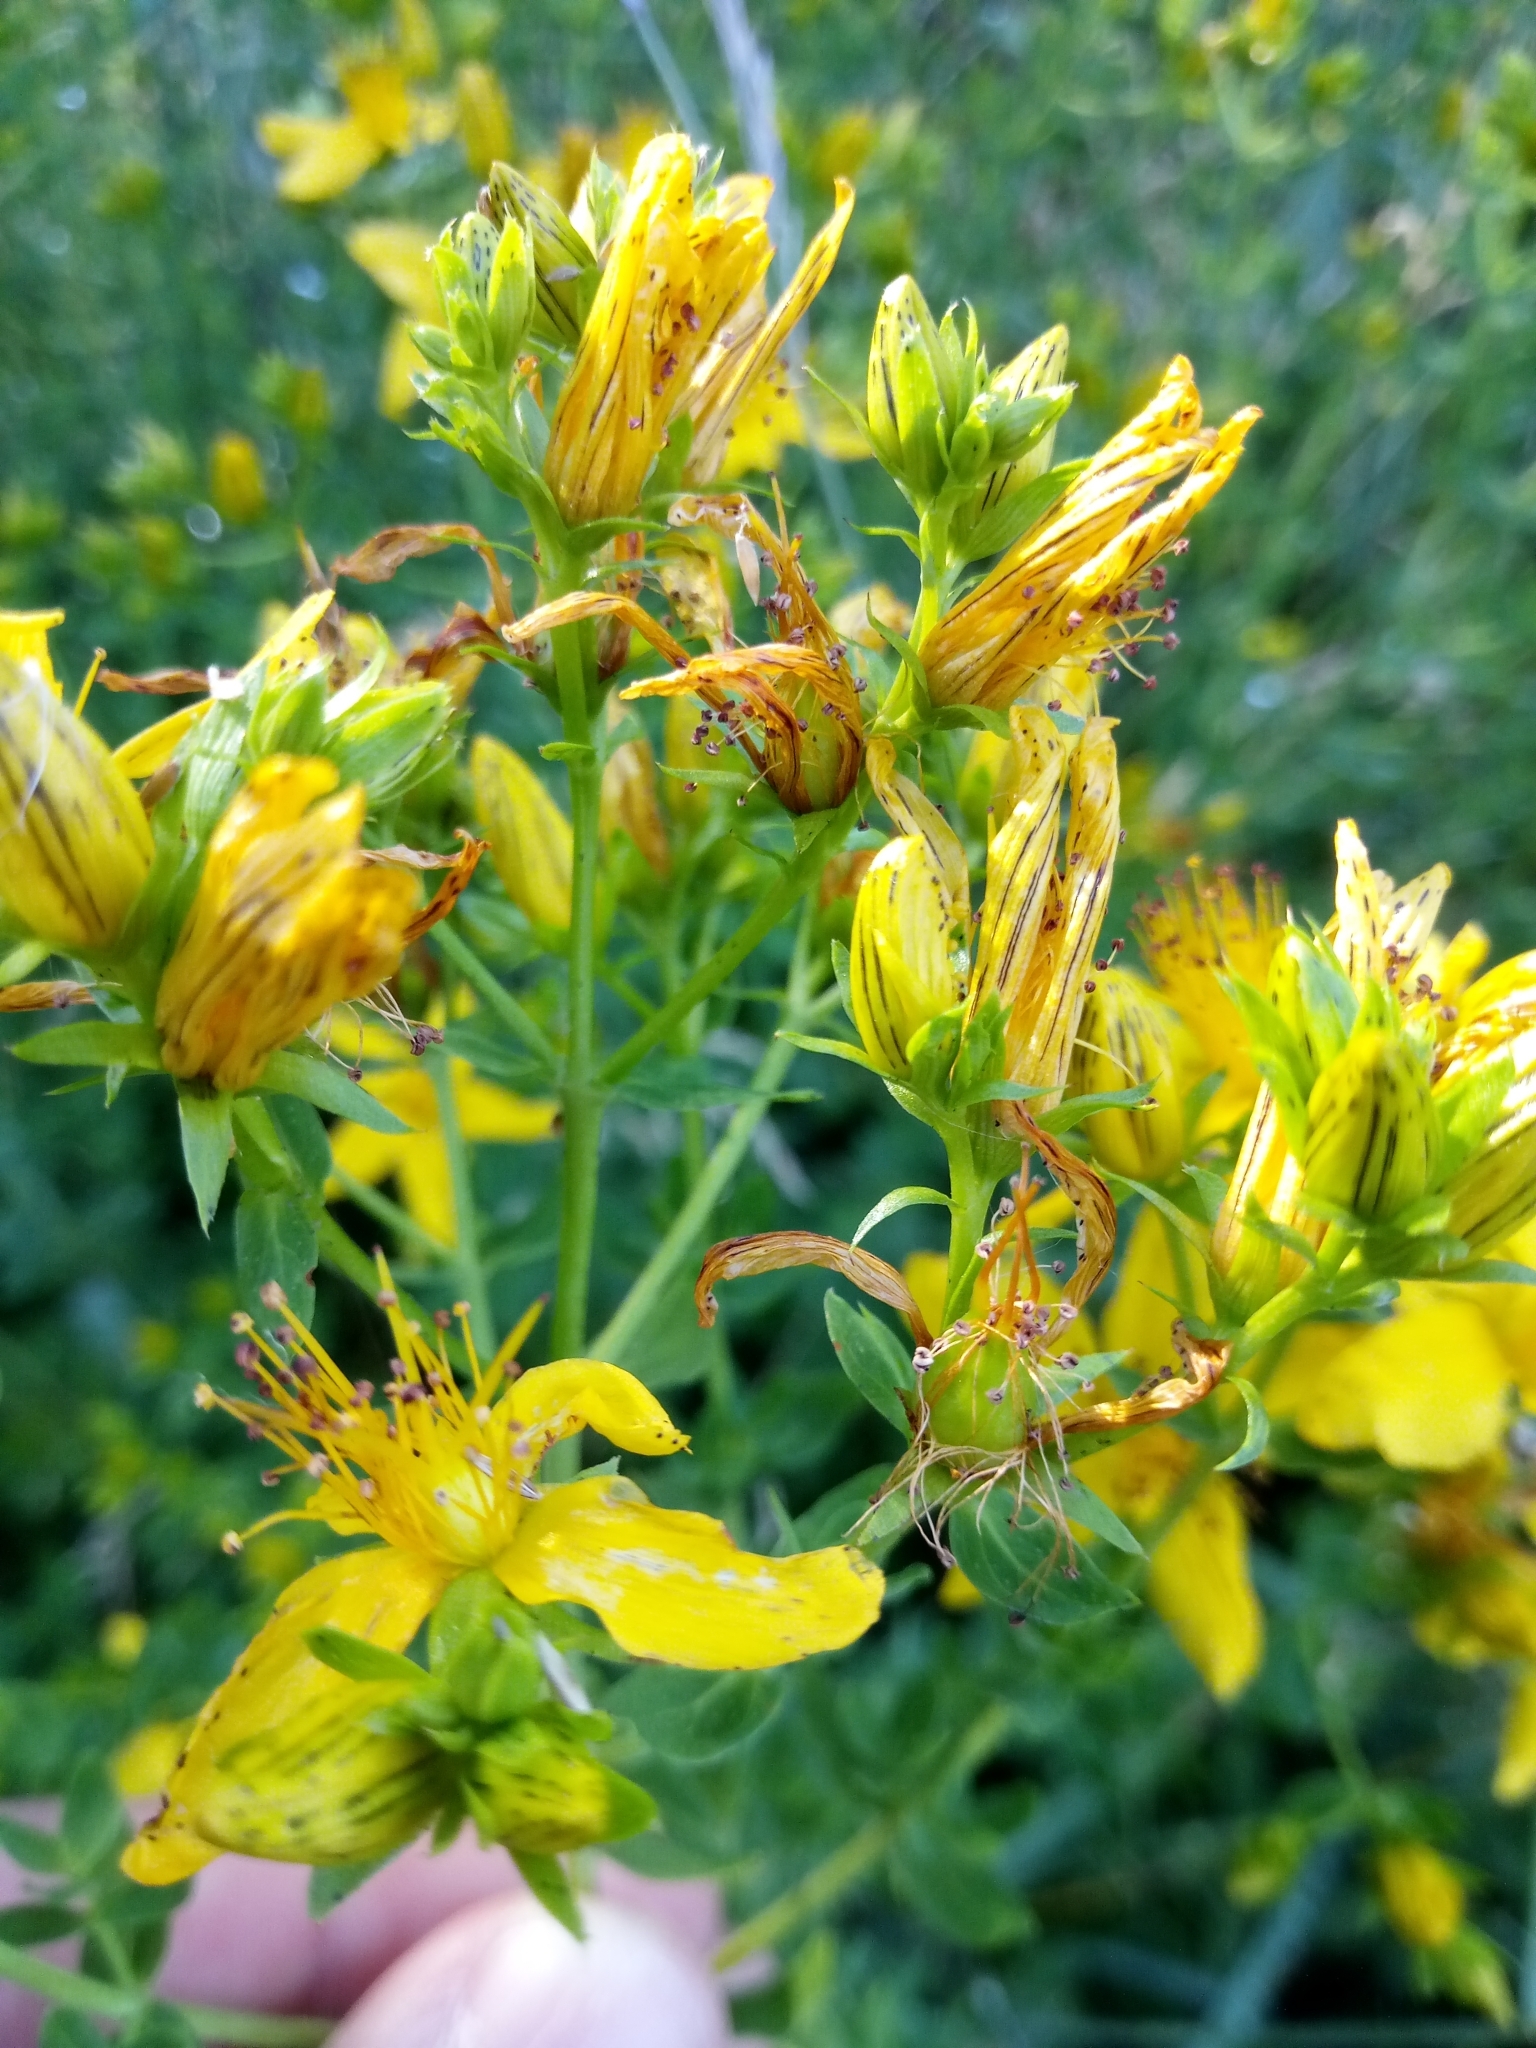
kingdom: Plantae
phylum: Tracheophyta
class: Magnoliopsida
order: Malpighiales
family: Hypericaceae
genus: Hypericum
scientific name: Hypericum perforatum
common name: Common st. johnswort
